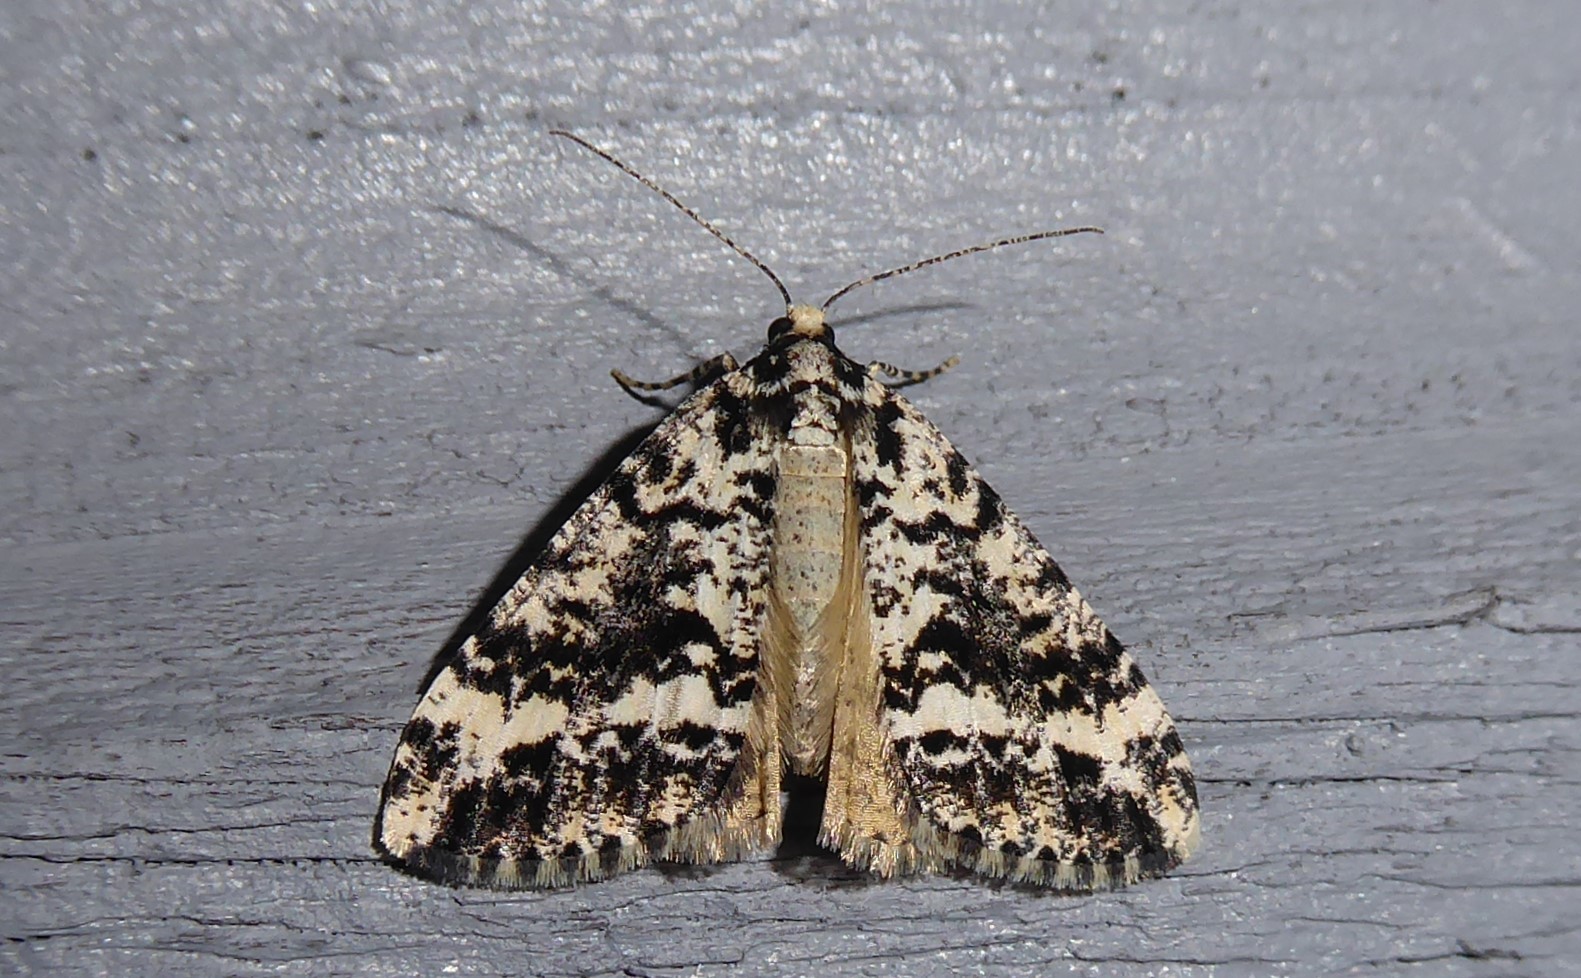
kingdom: Animalia
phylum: Arthropoda
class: Insecta
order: Lepidoptera
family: Geometridae
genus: Pseudocoremia
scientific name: Pseudocoremia leucelaea
